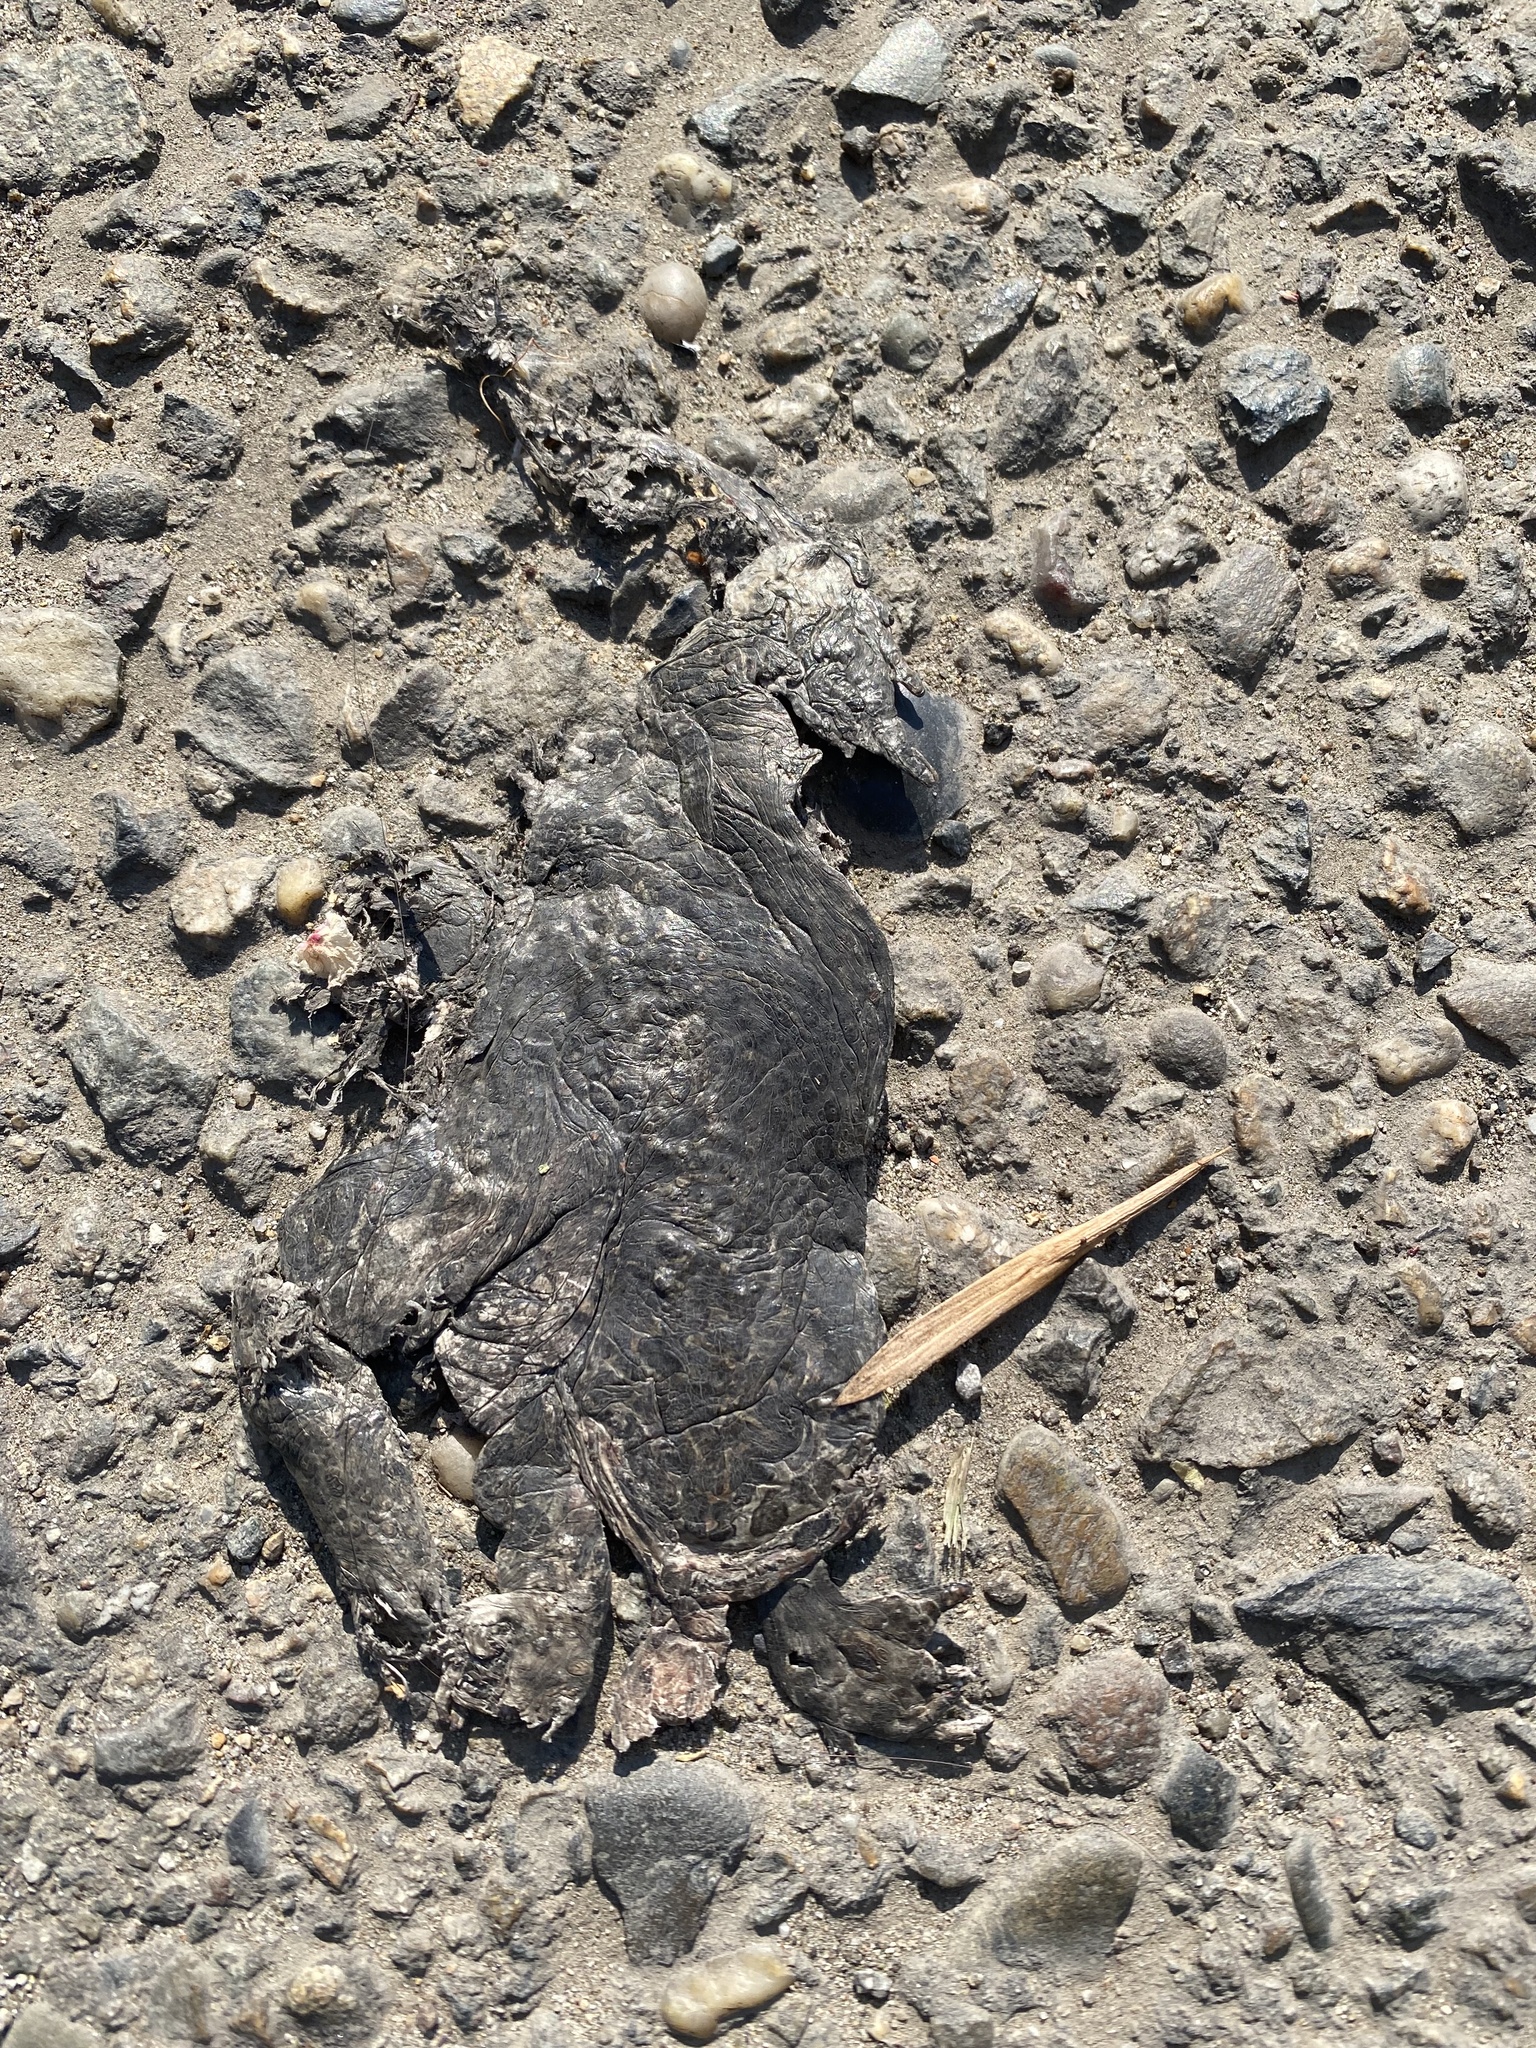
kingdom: Animalia
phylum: Chordata
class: Amphibia
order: Anura
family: Bufonidae
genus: Bufotes
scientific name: Bufotes viridis
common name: European green toad
